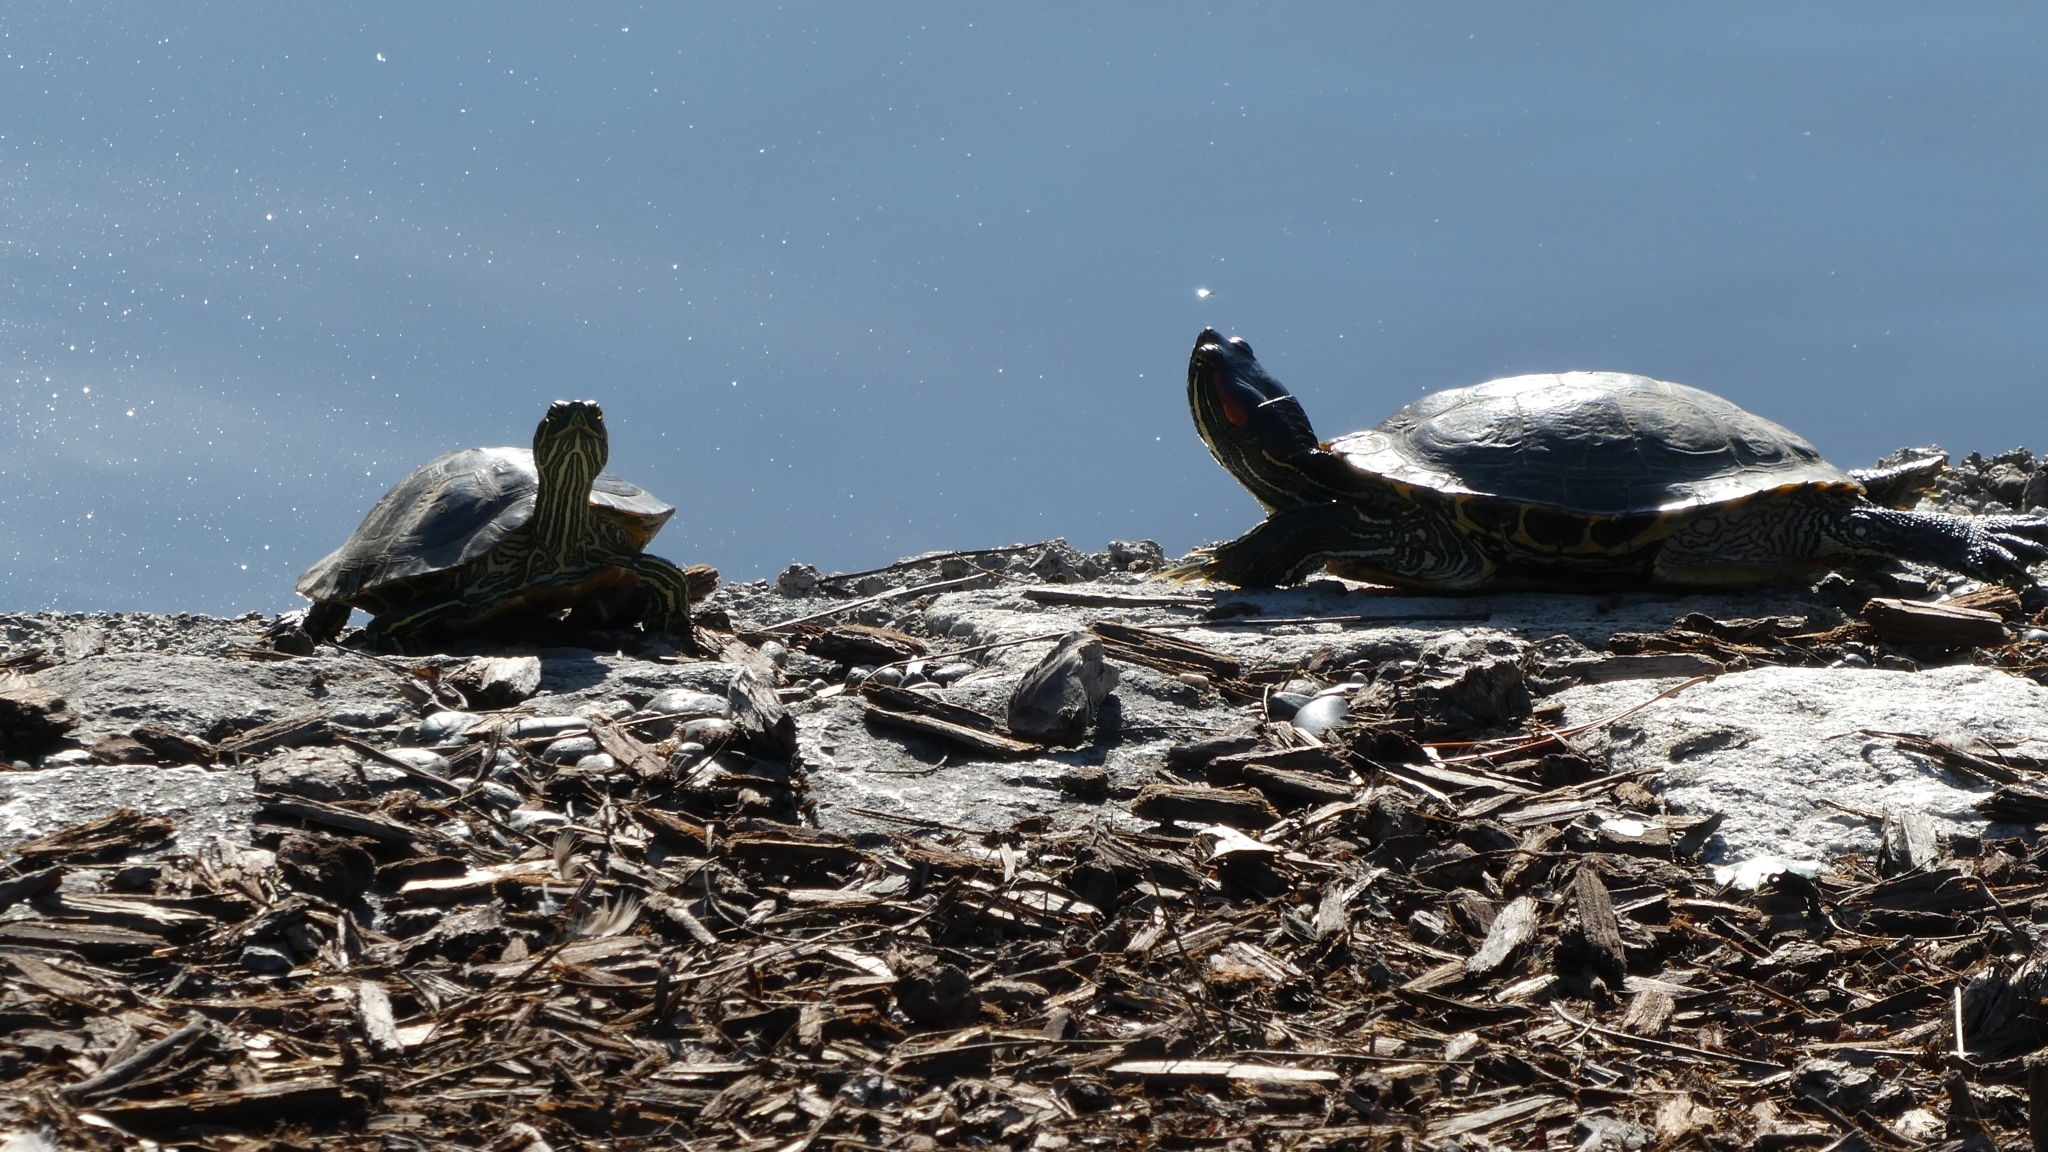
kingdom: Animalia
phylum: Chordata
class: Testudines
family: Emydidae
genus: Trachemys
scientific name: Trachemys scripta
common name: Slider
